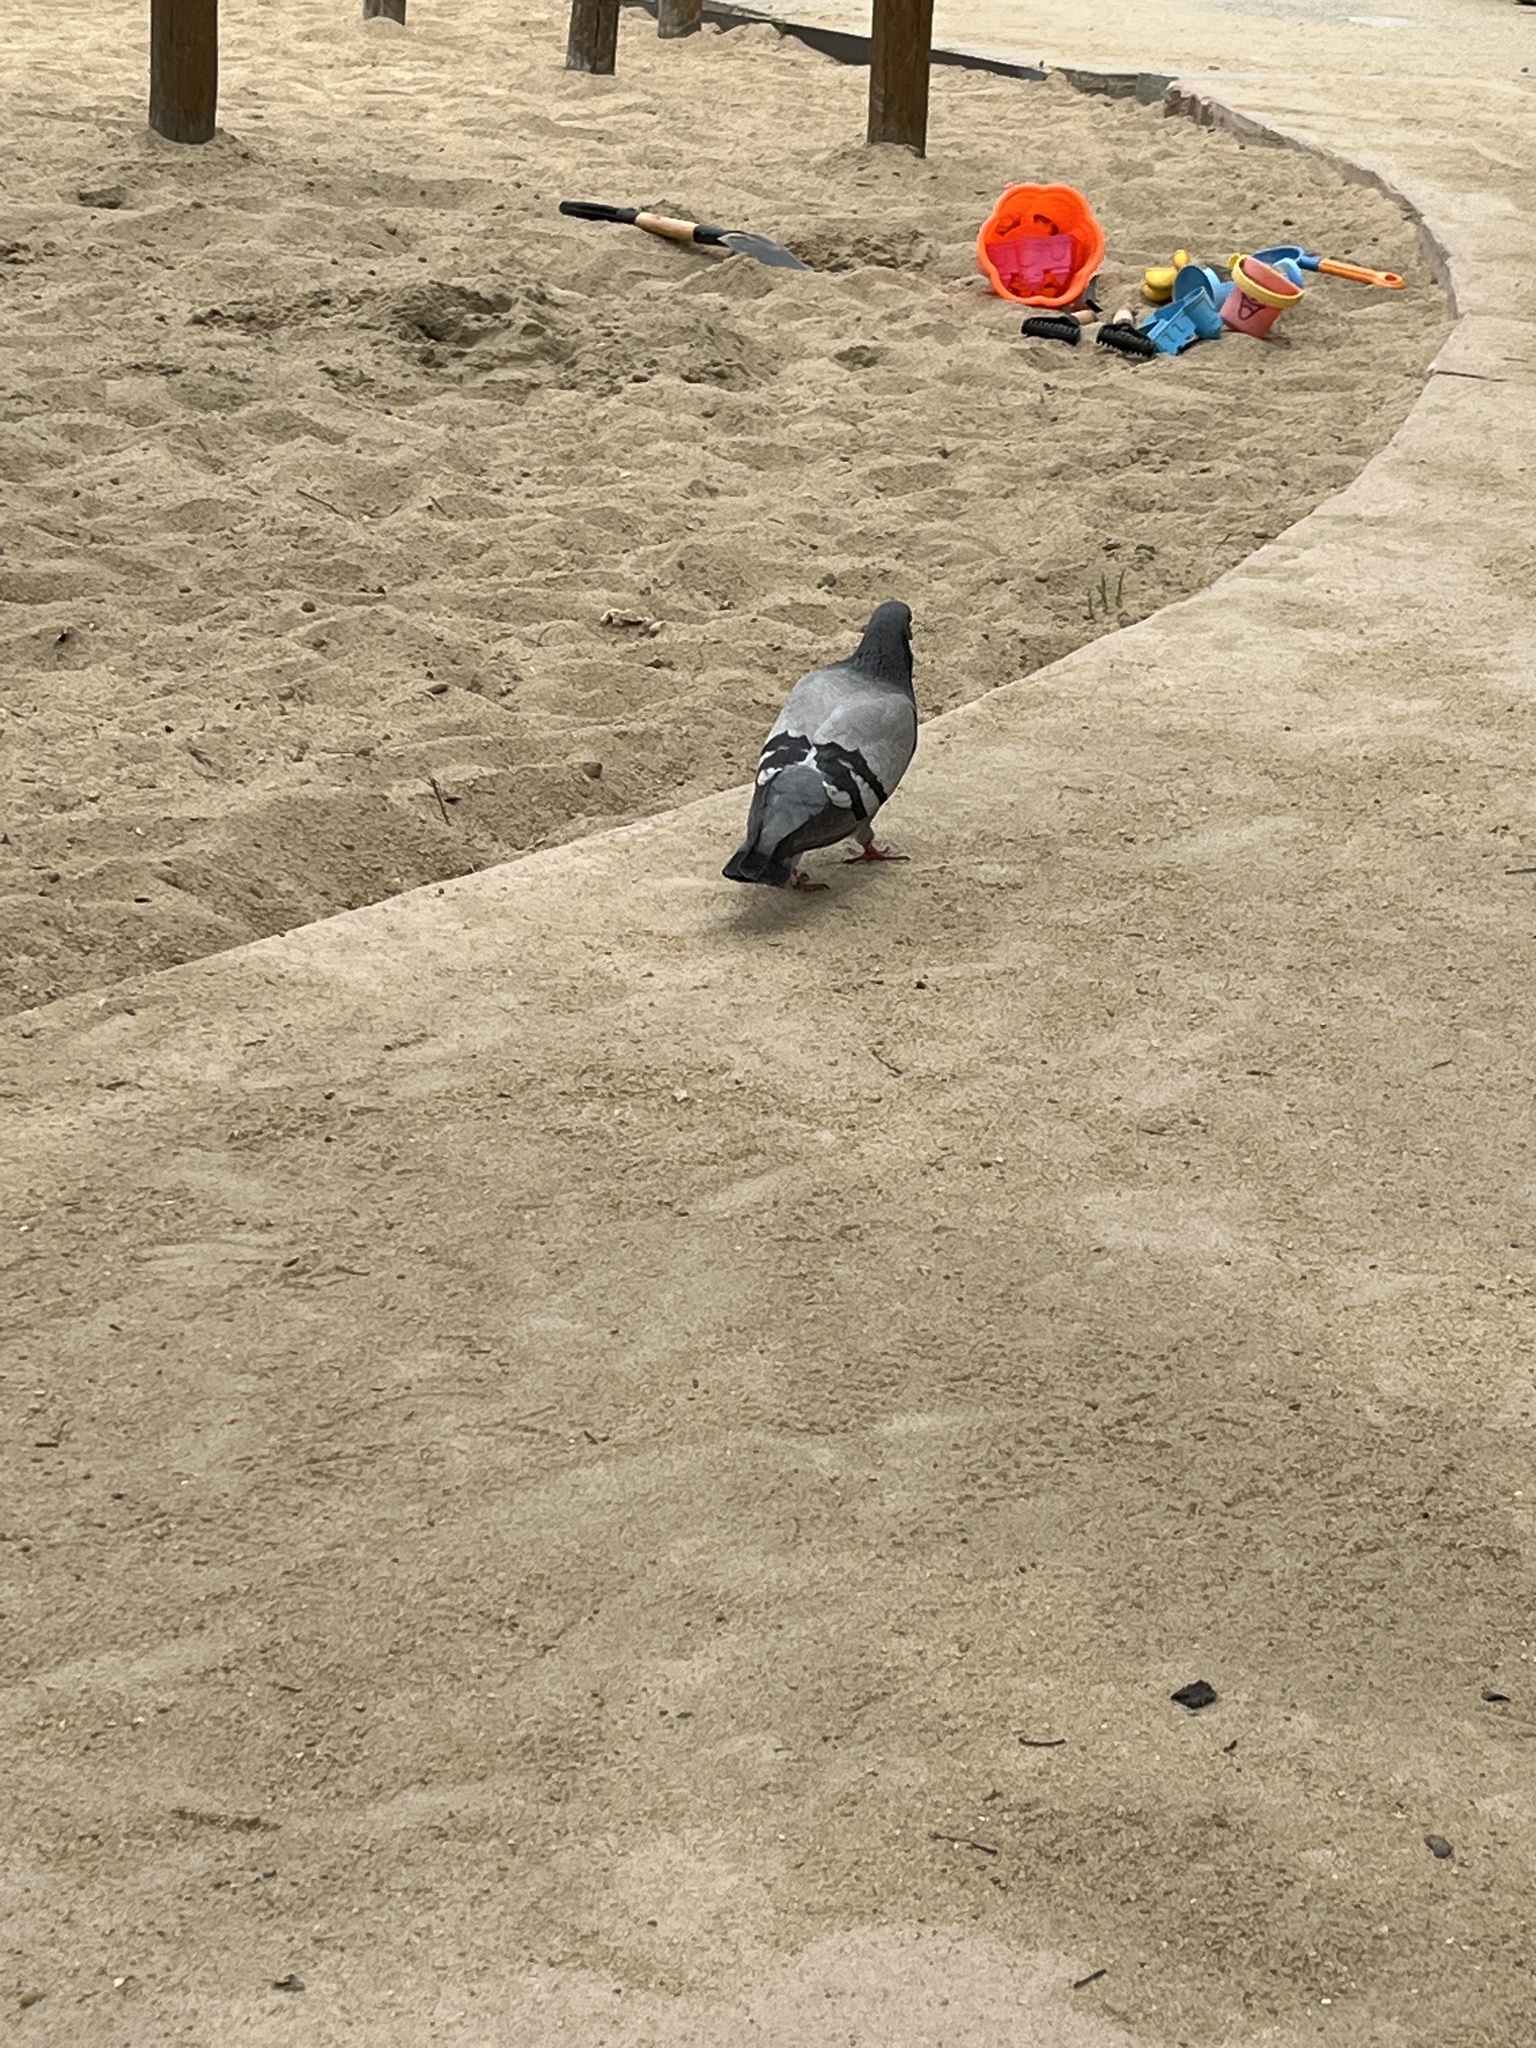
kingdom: Animalia
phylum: Chordata
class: Aves
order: Columbiformes
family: Columbidae
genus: Columba
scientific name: Columba livia
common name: Rock pigeon
